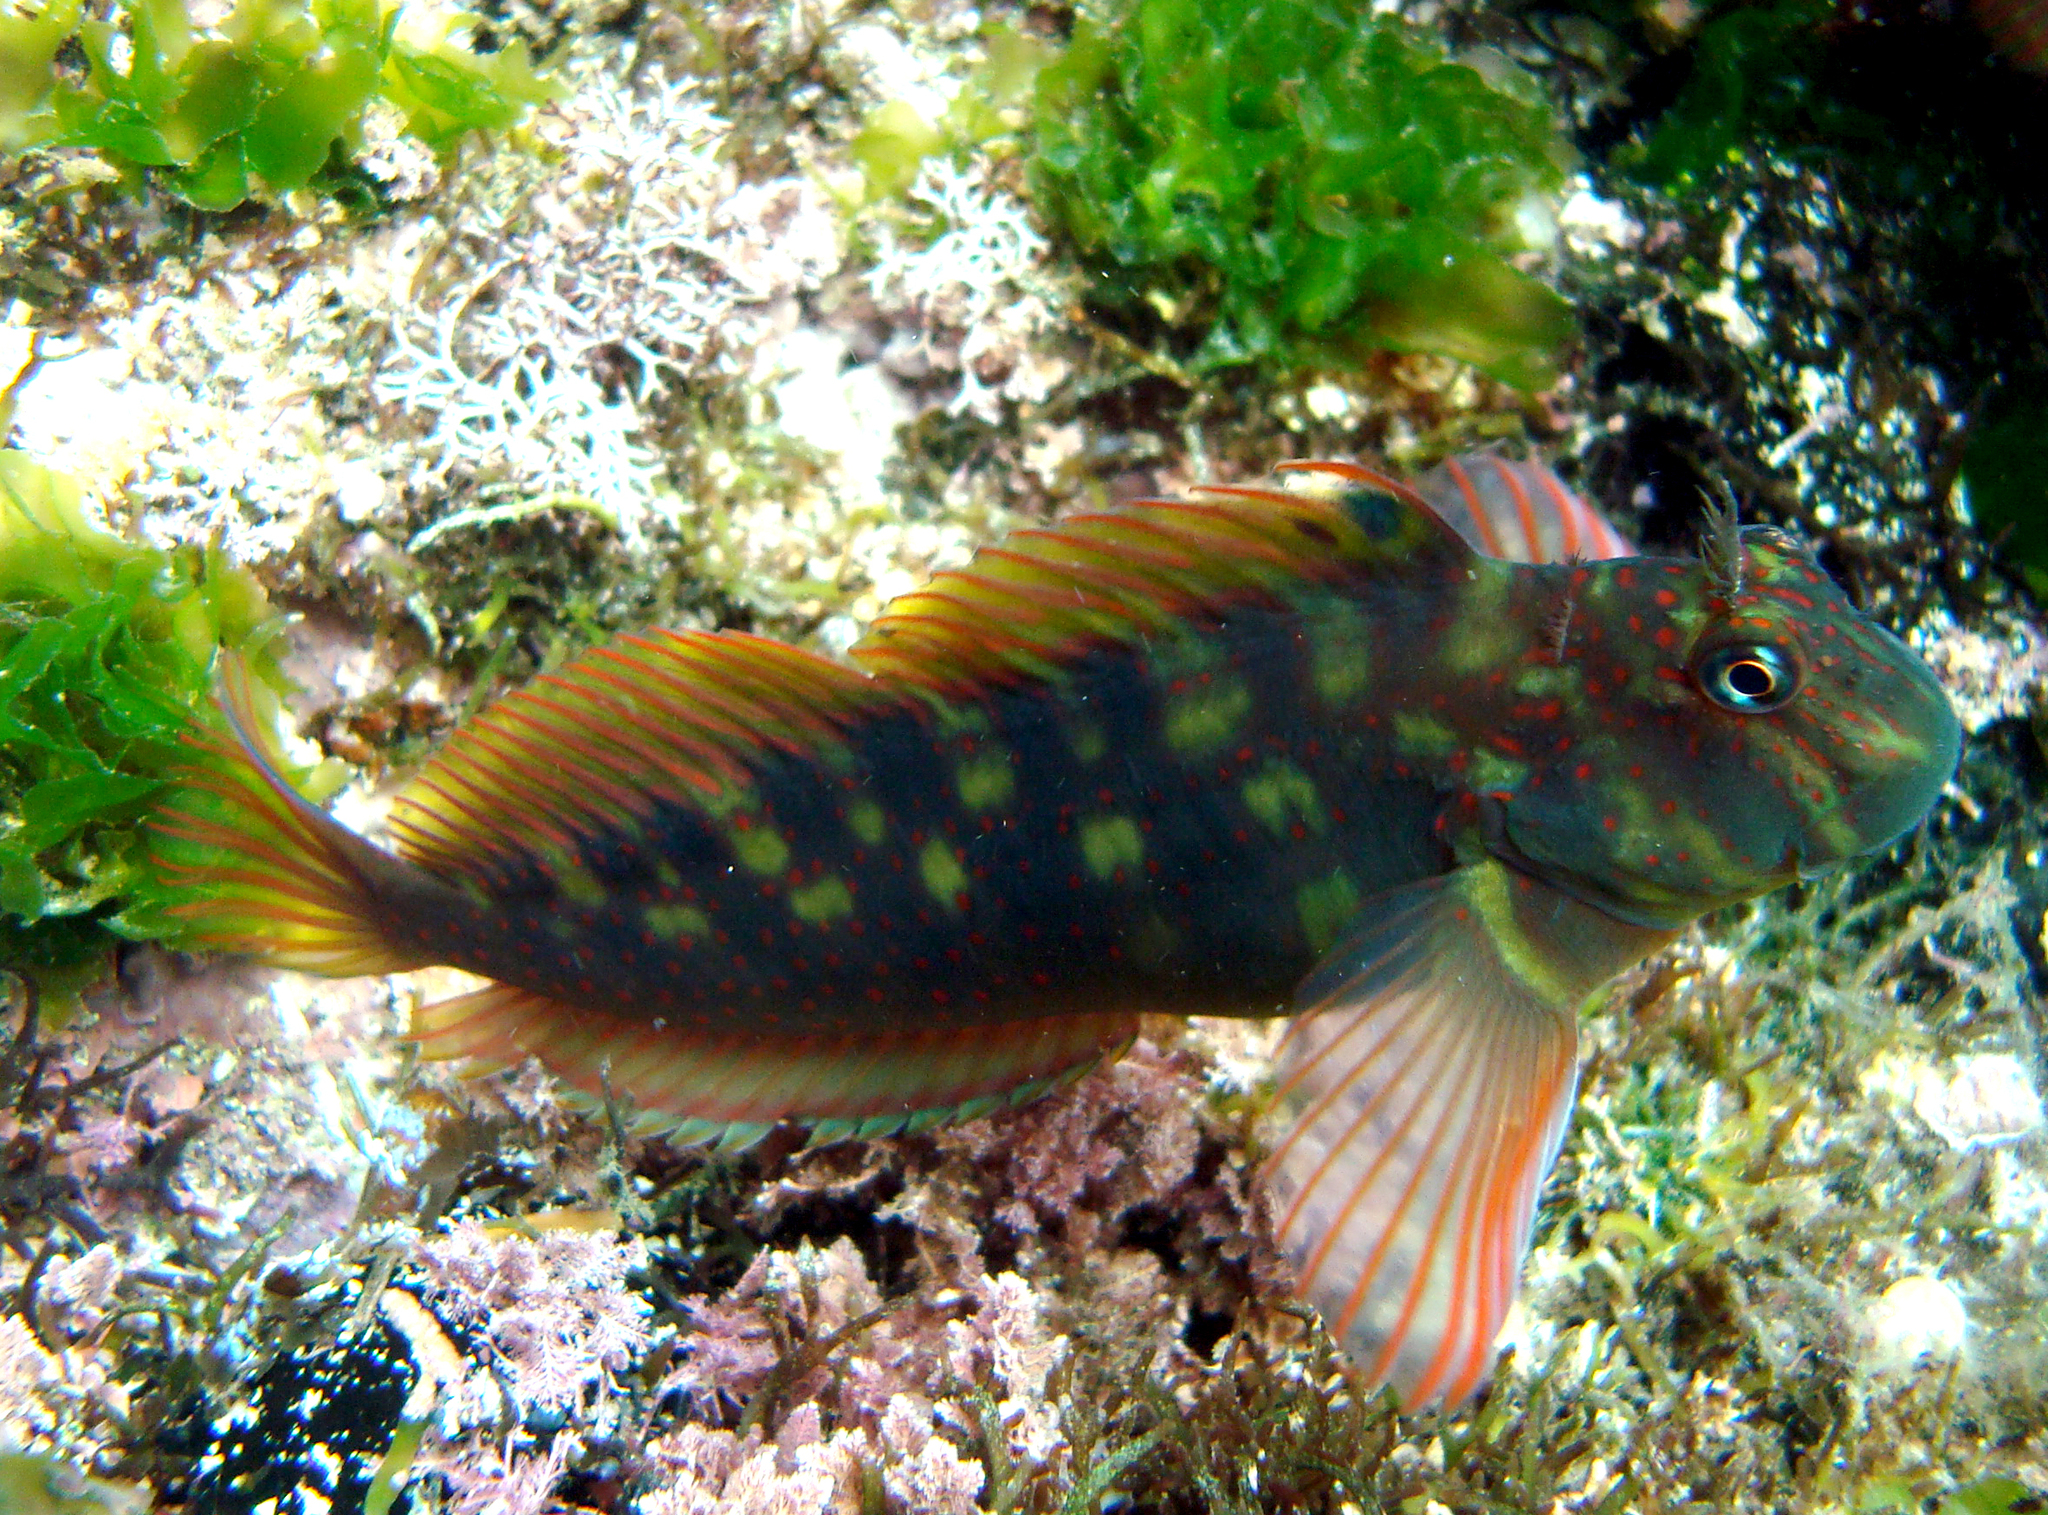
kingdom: Animalia
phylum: Chordata
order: Perciformes
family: Blenniidae
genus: Scartichthys
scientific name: Scartichthys variolatus
